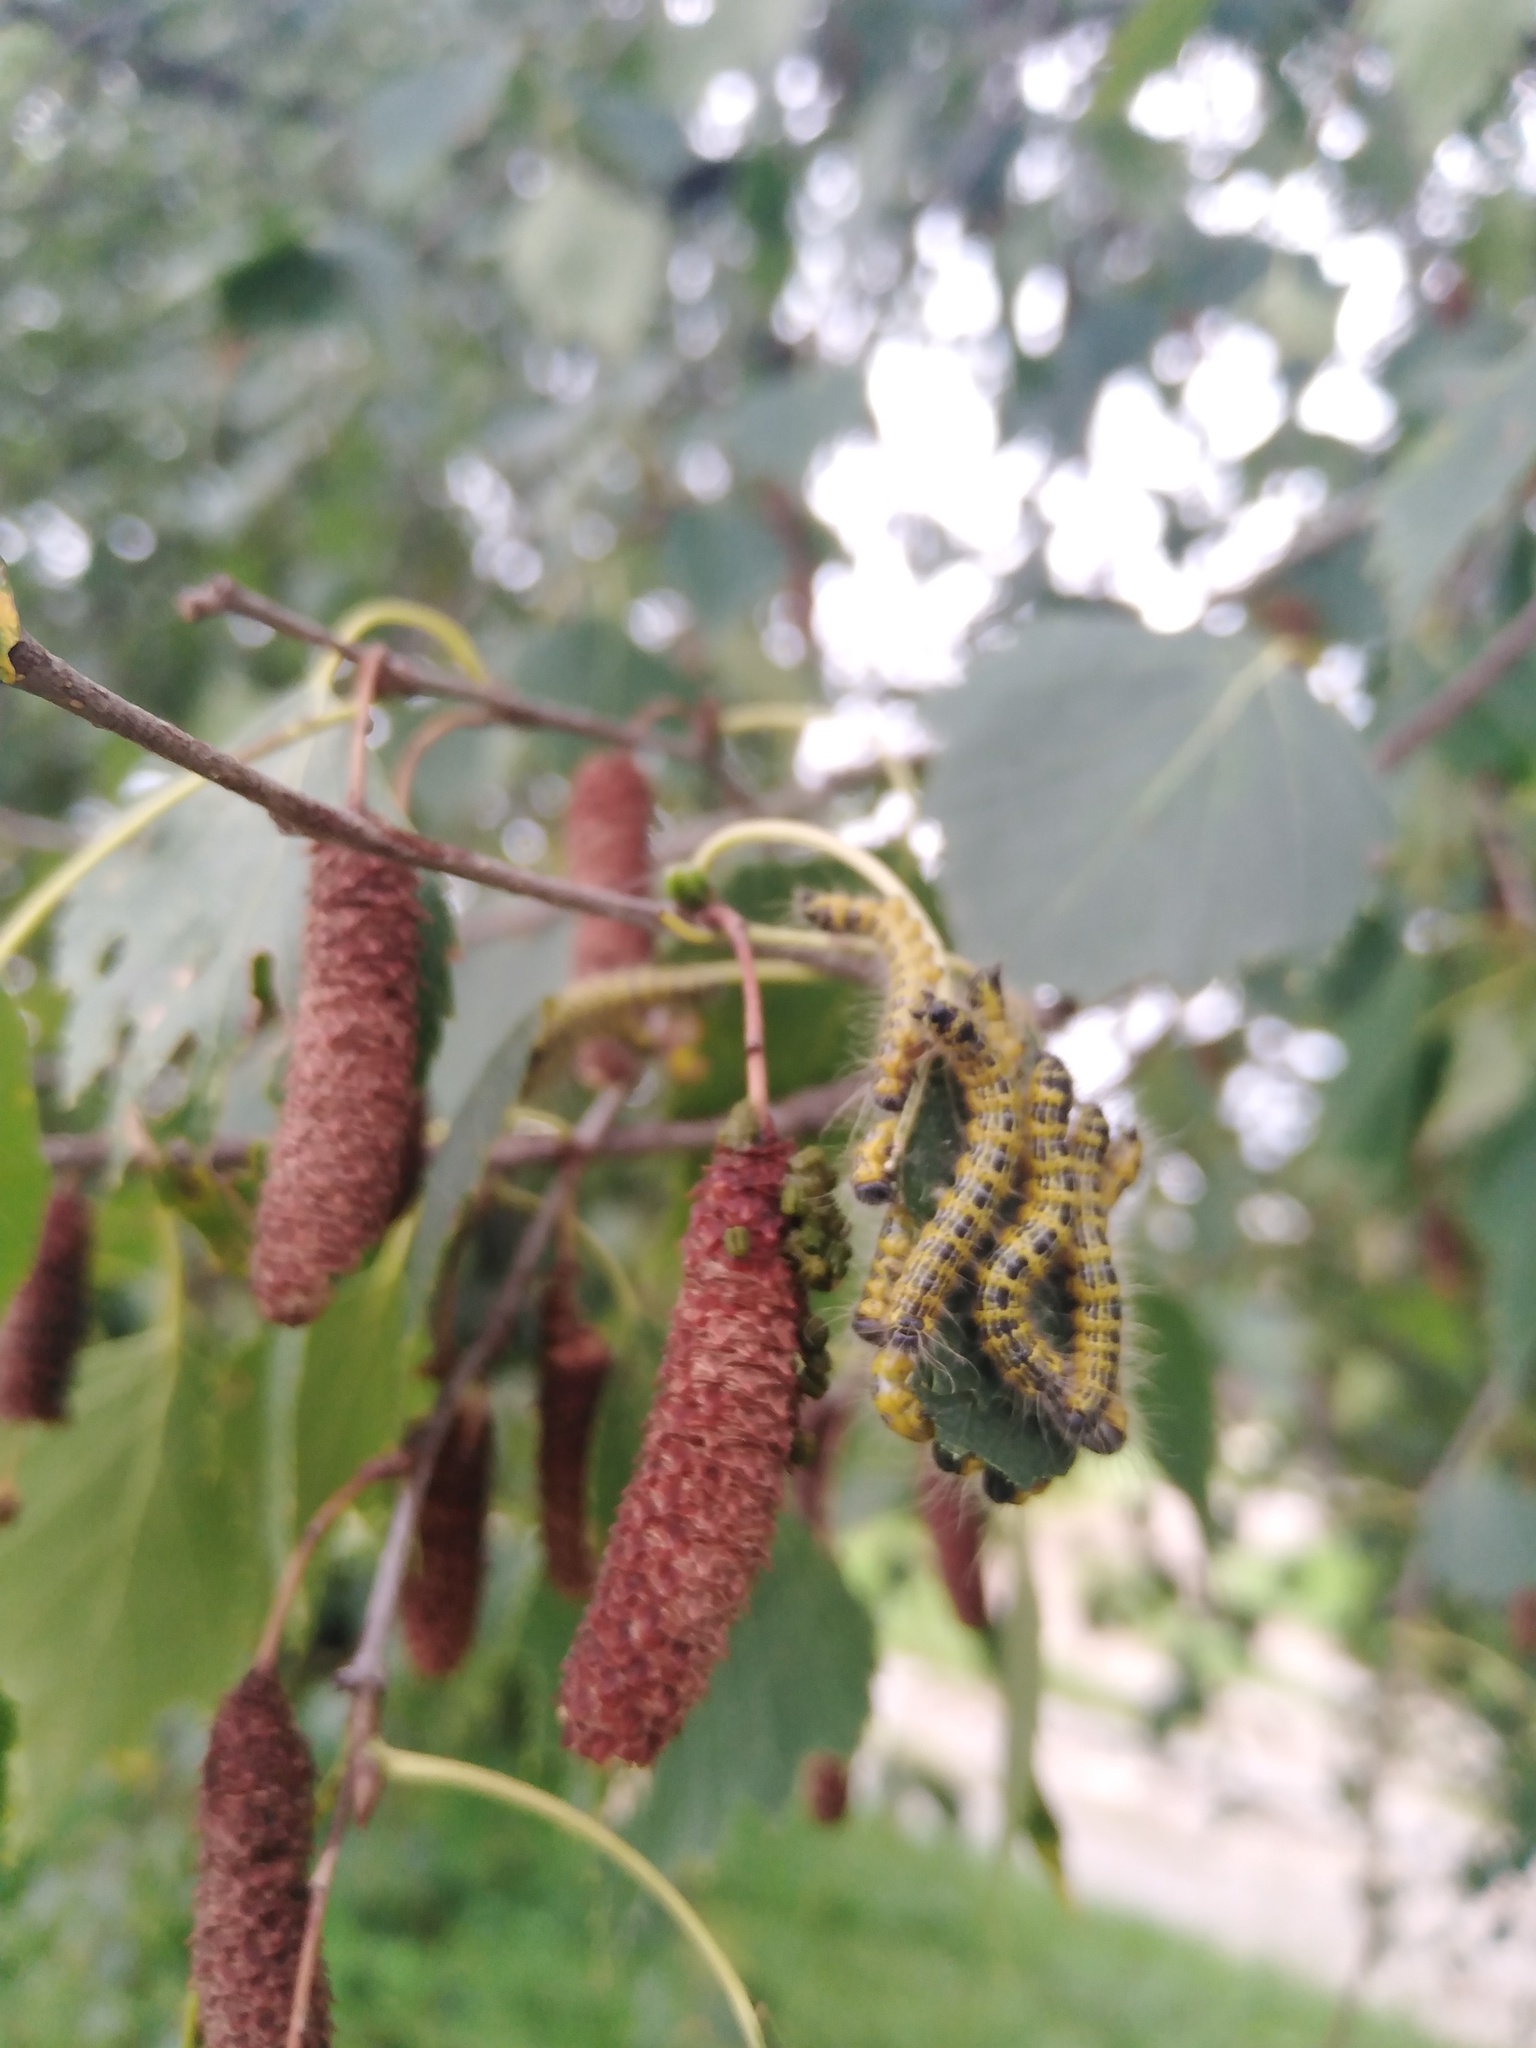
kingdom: Animalia
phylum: Arthropoda
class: Insecta
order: Lepidoptera
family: Notodontidae
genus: Phalera
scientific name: Phalera bucephala
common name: Buff-tip
